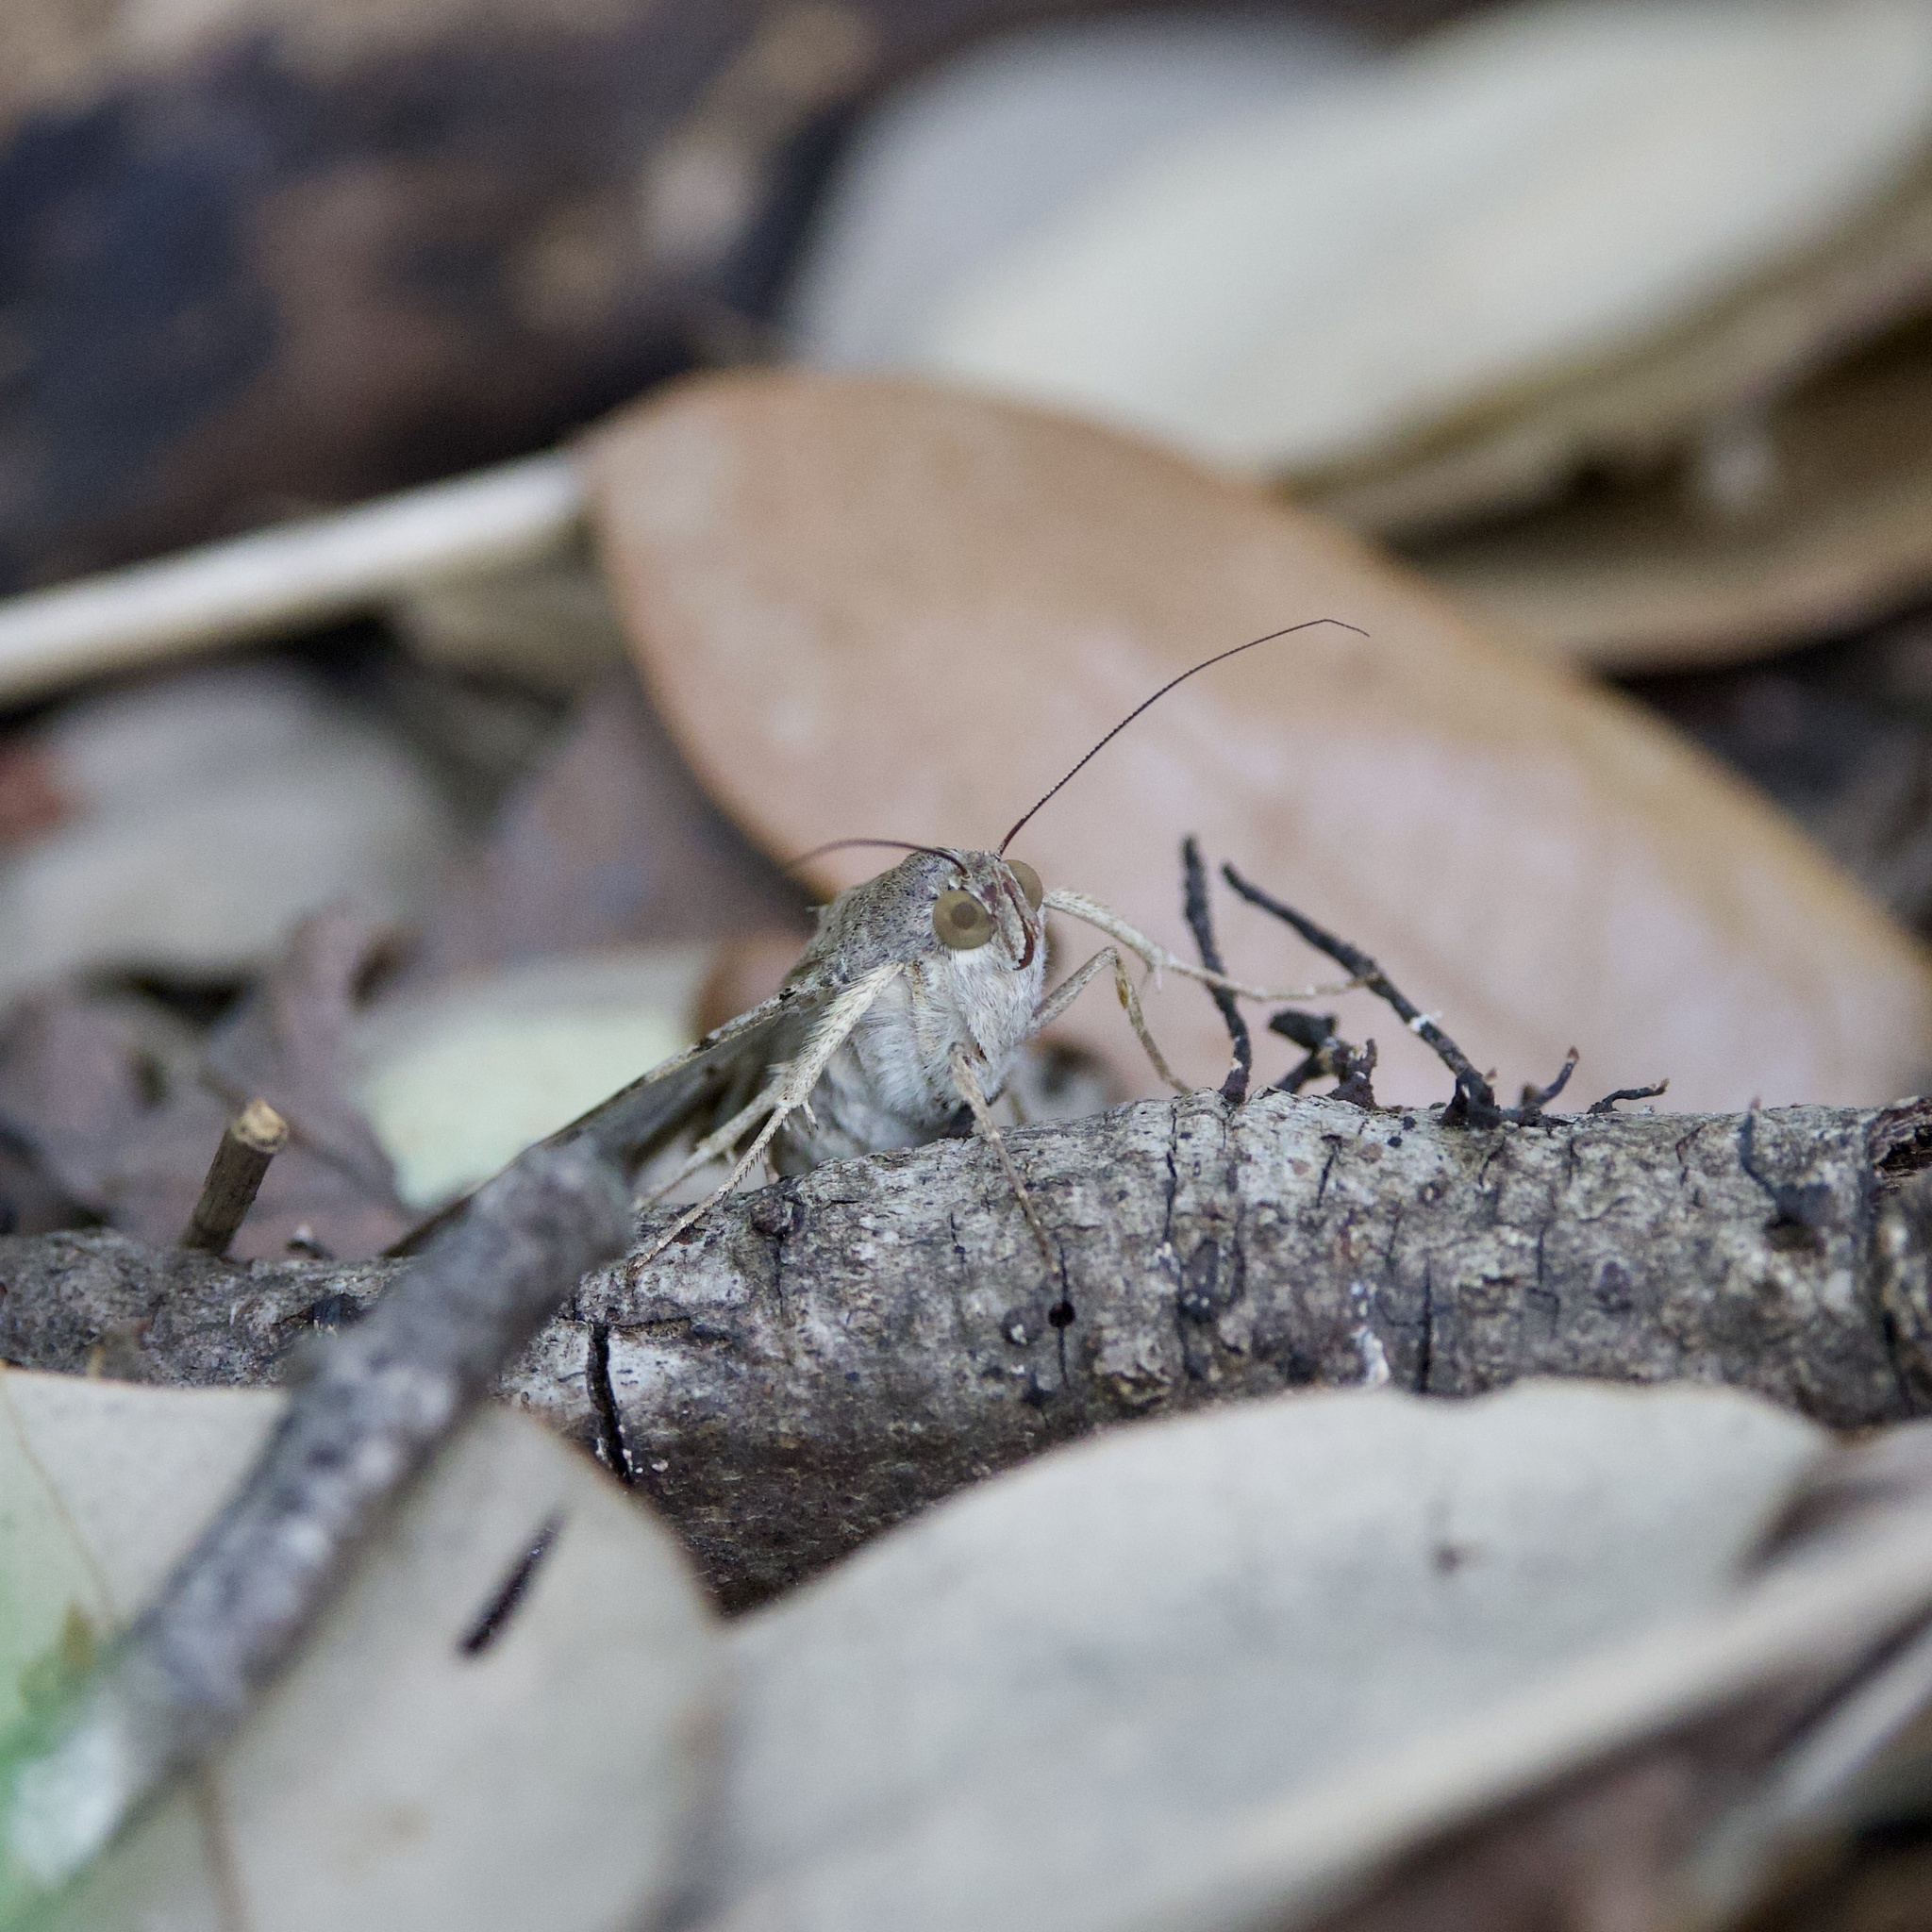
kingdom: Animalia
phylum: Arthropoda
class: Insecta
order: Lepidoptera
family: Erebidae
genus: Melipotis
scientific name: Melipotis indomita
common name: Moth
